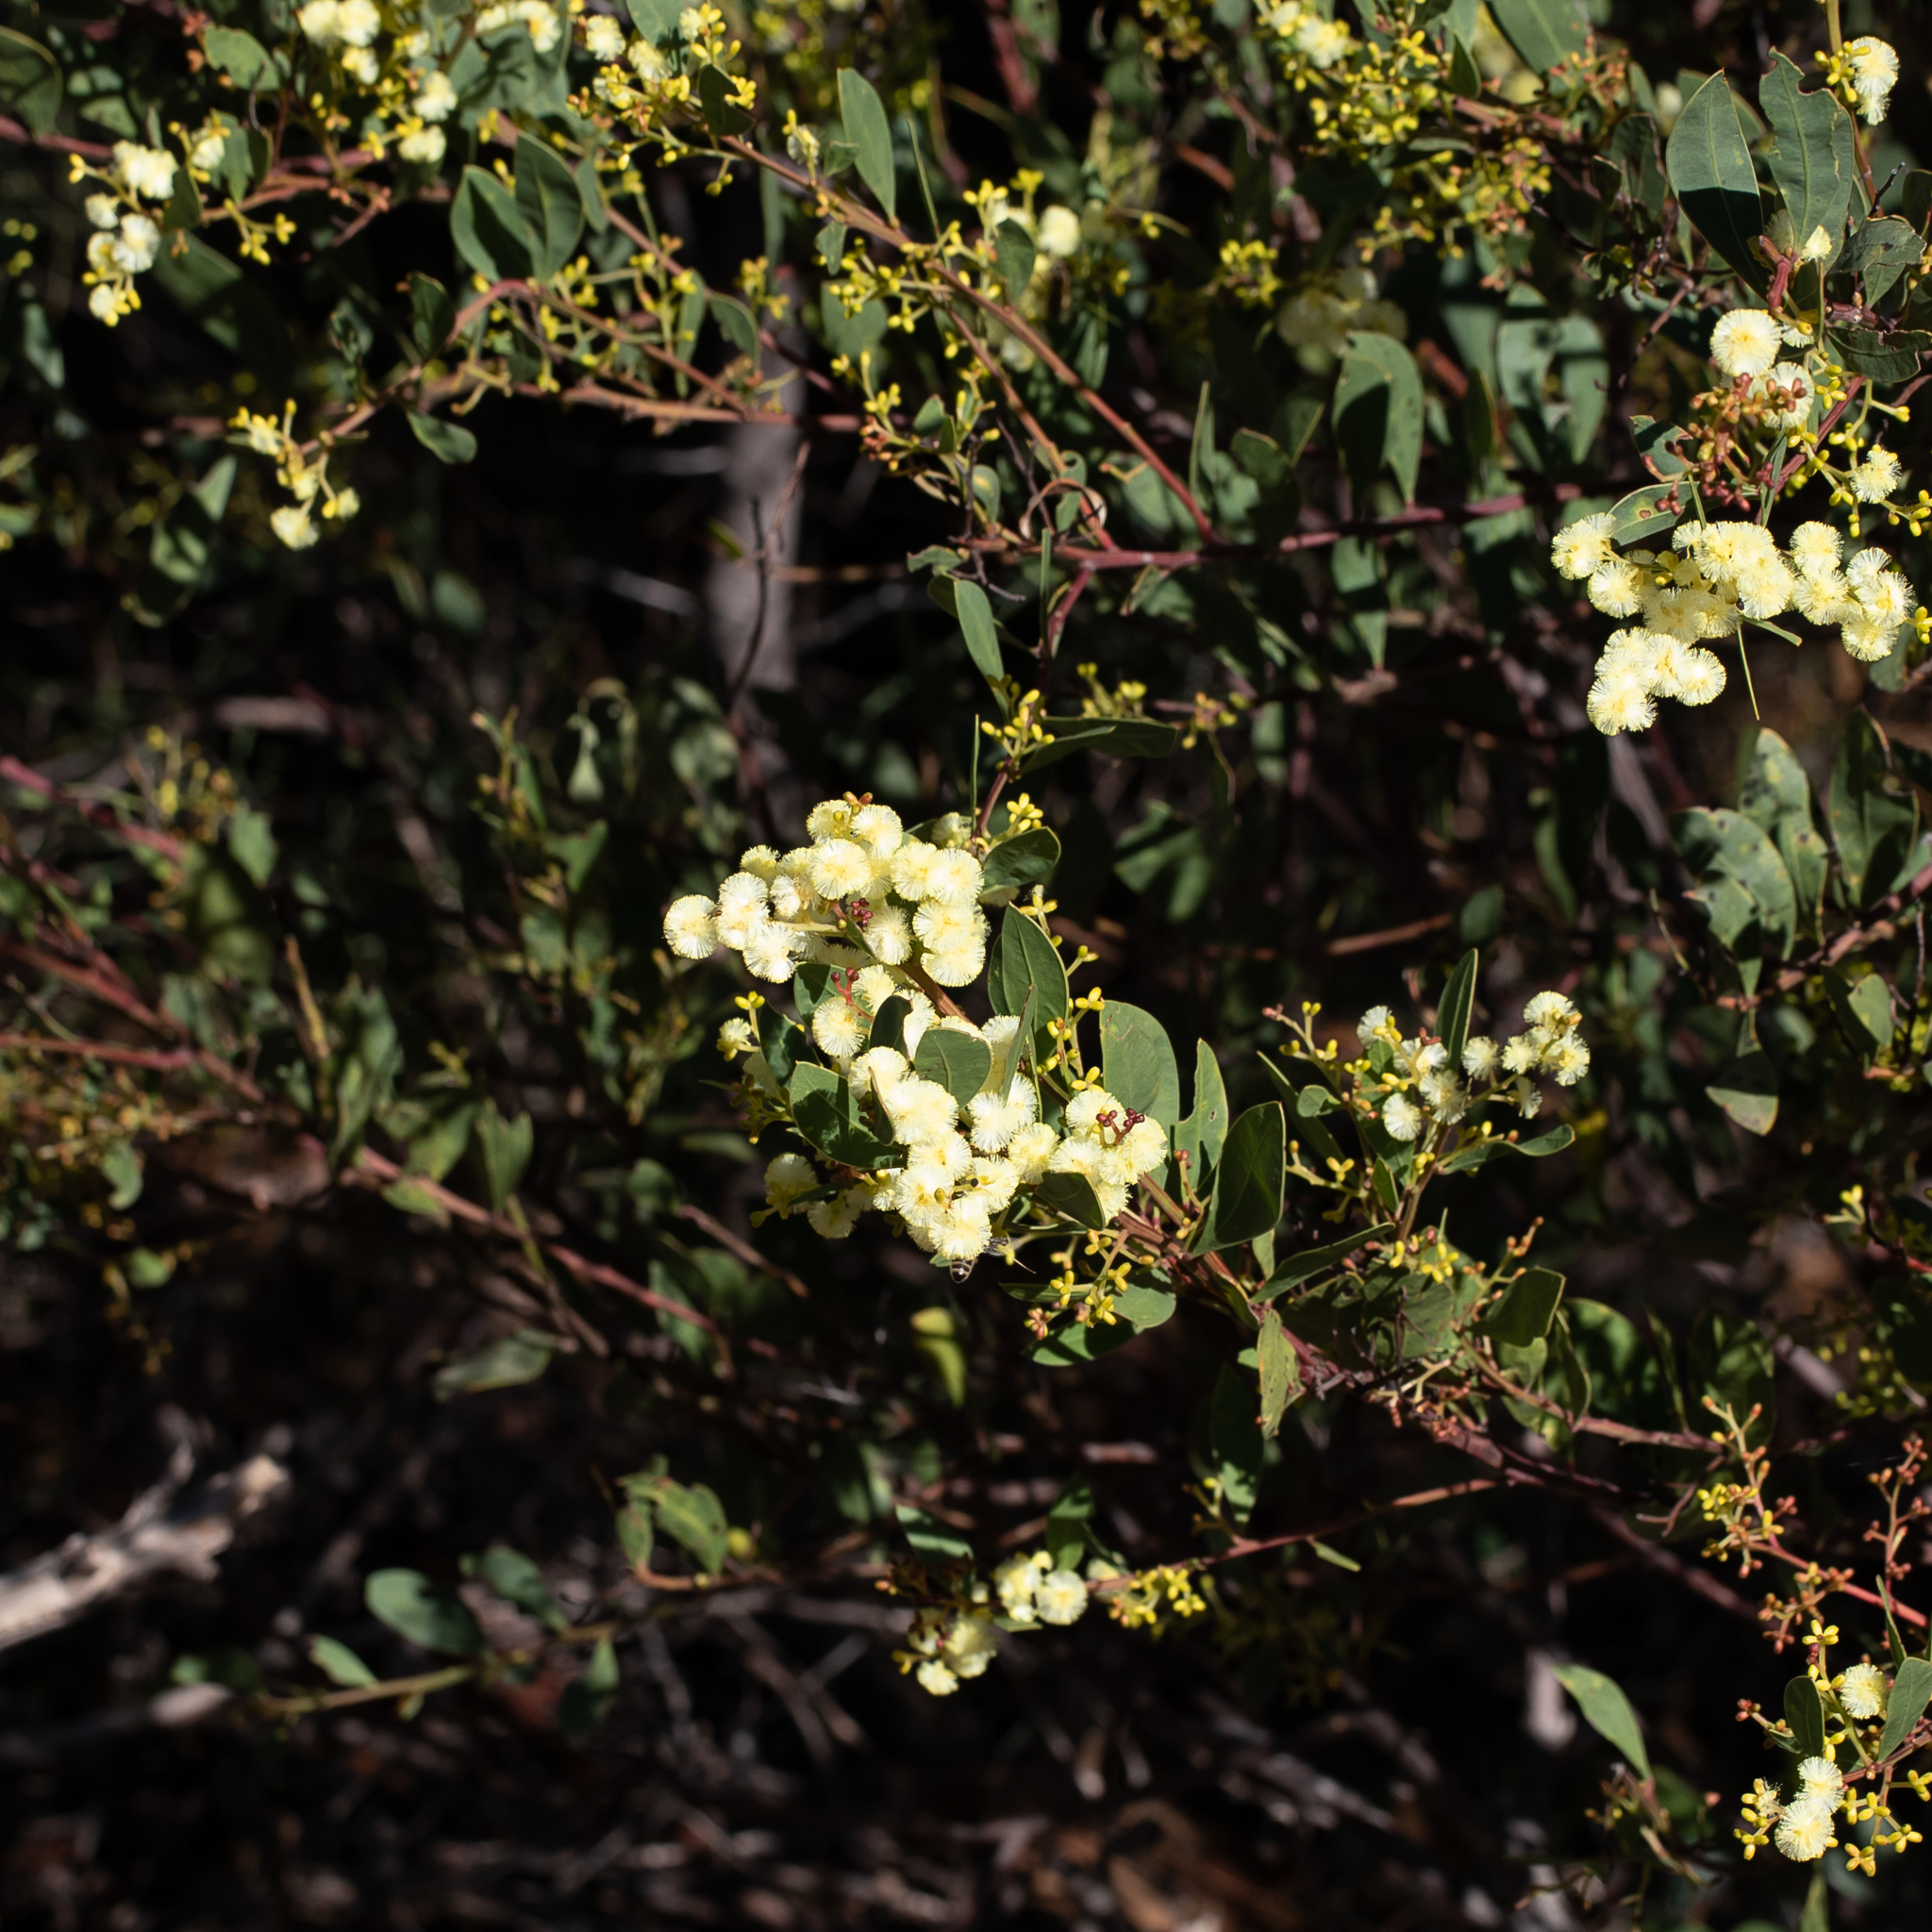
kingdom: Plantae
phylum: Tracheophyta
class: Magnoliopsida
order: Fabales
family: Fabaceae
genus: Acacia
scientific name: Acacia myrtifolia
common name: Myrtle wattle
